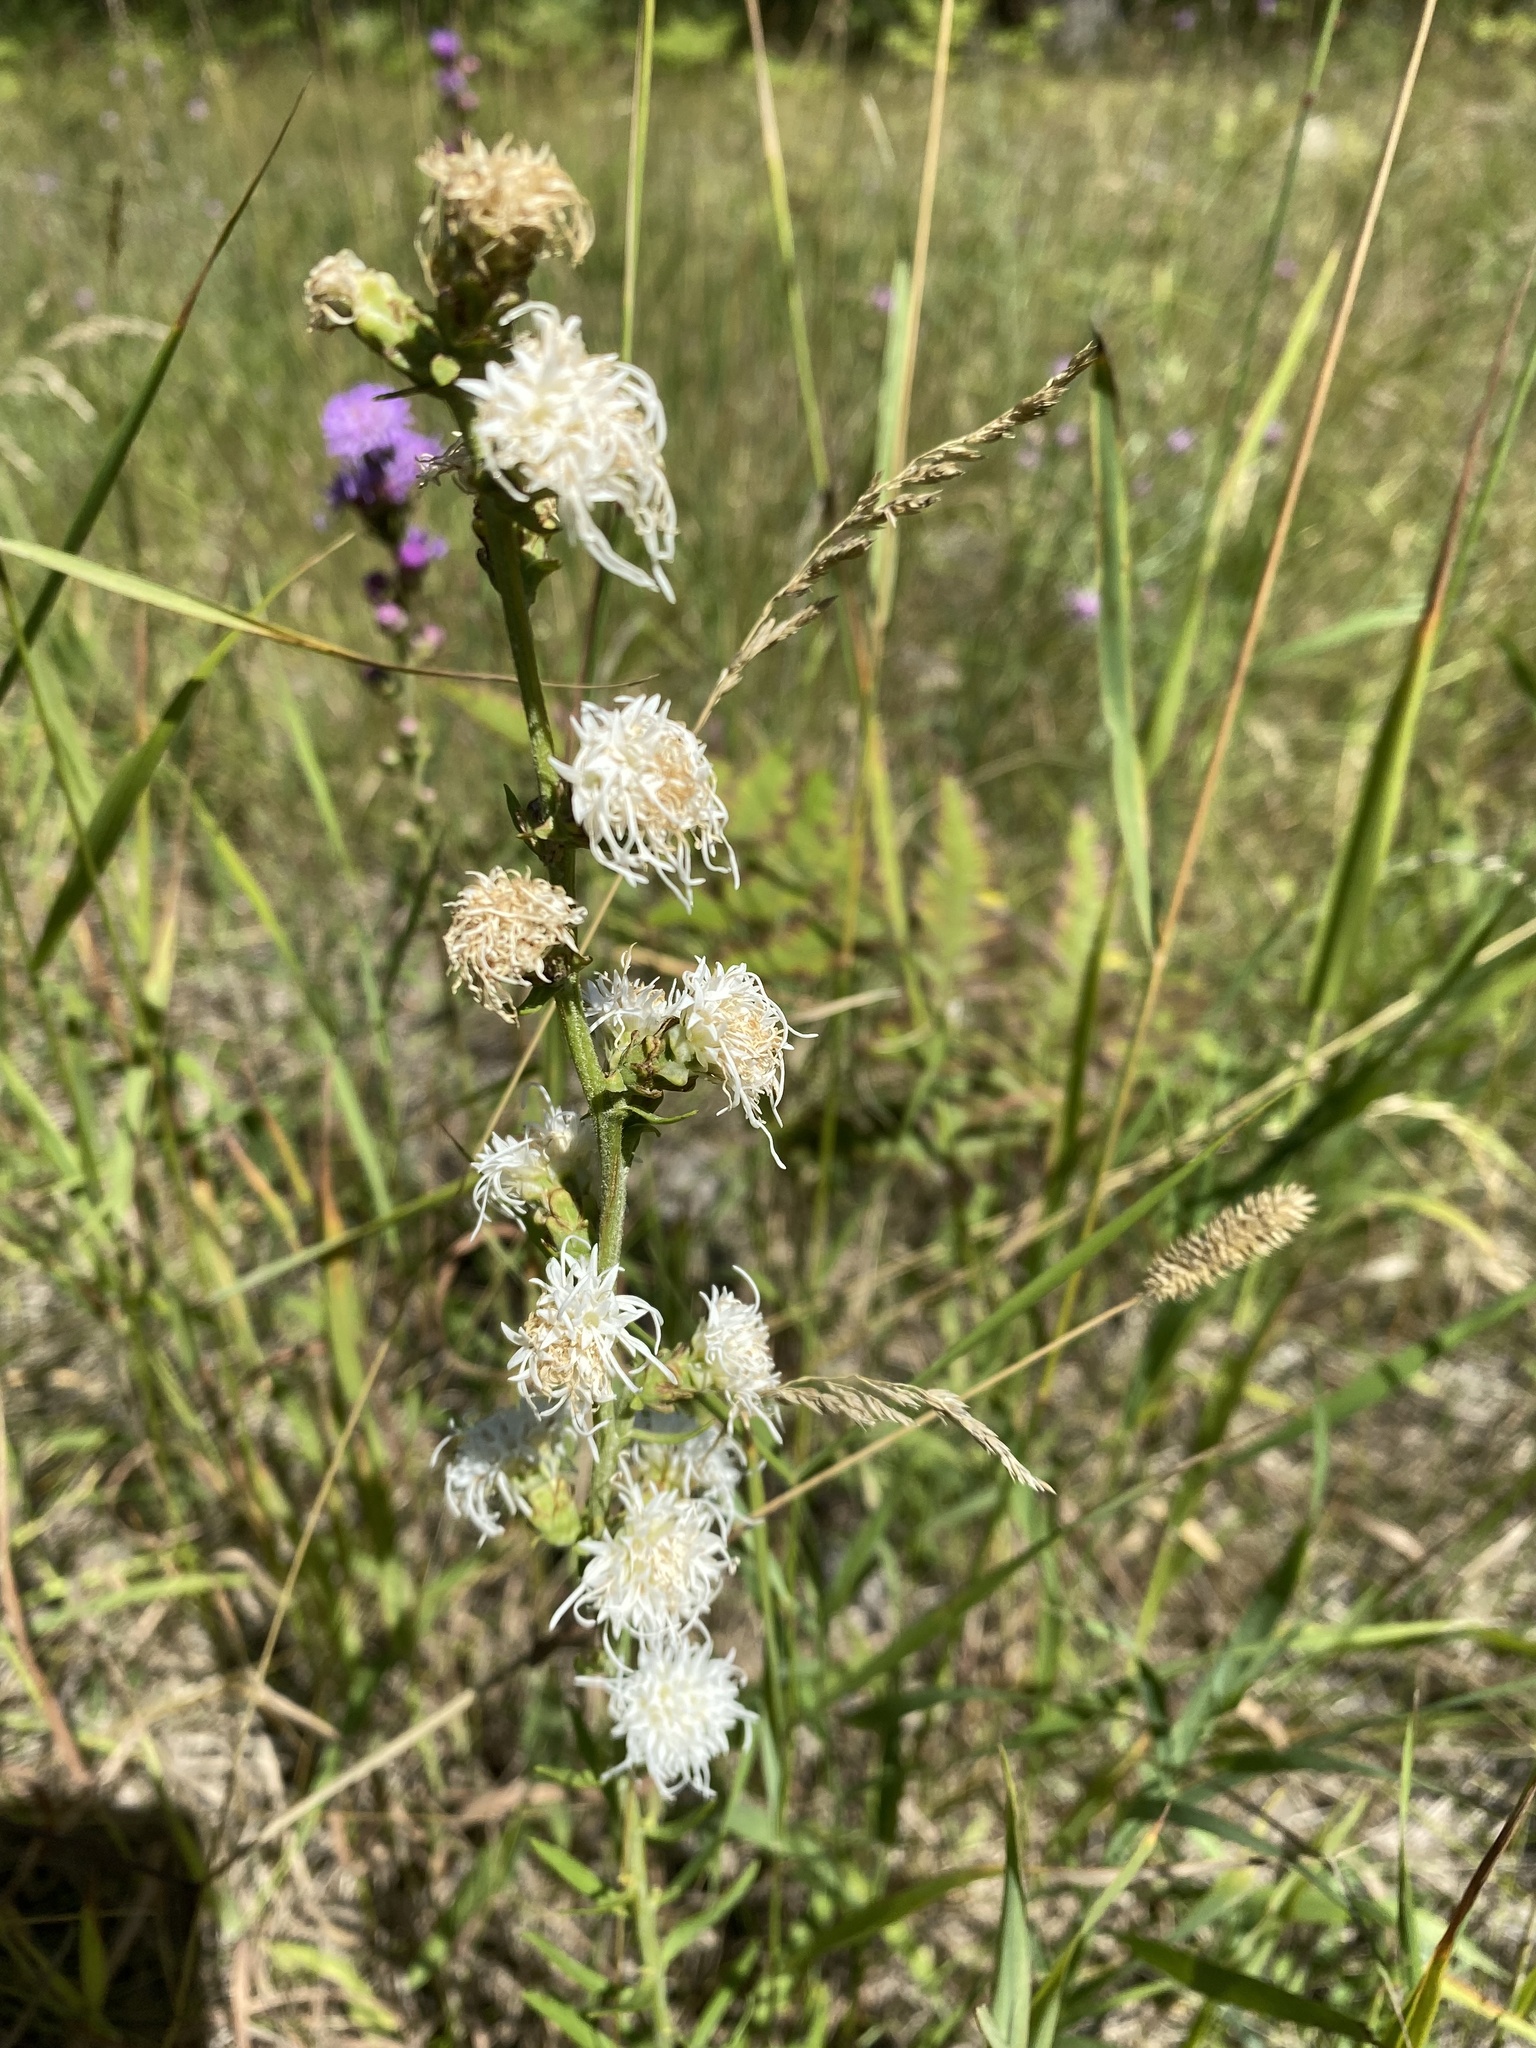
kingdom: Plantae
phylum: Tracheophyta
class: Magnoliopsida
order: Asterales
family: Asteraceae
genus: Liatris
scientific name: Liatris aspera
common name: Lacerate blazing-star
